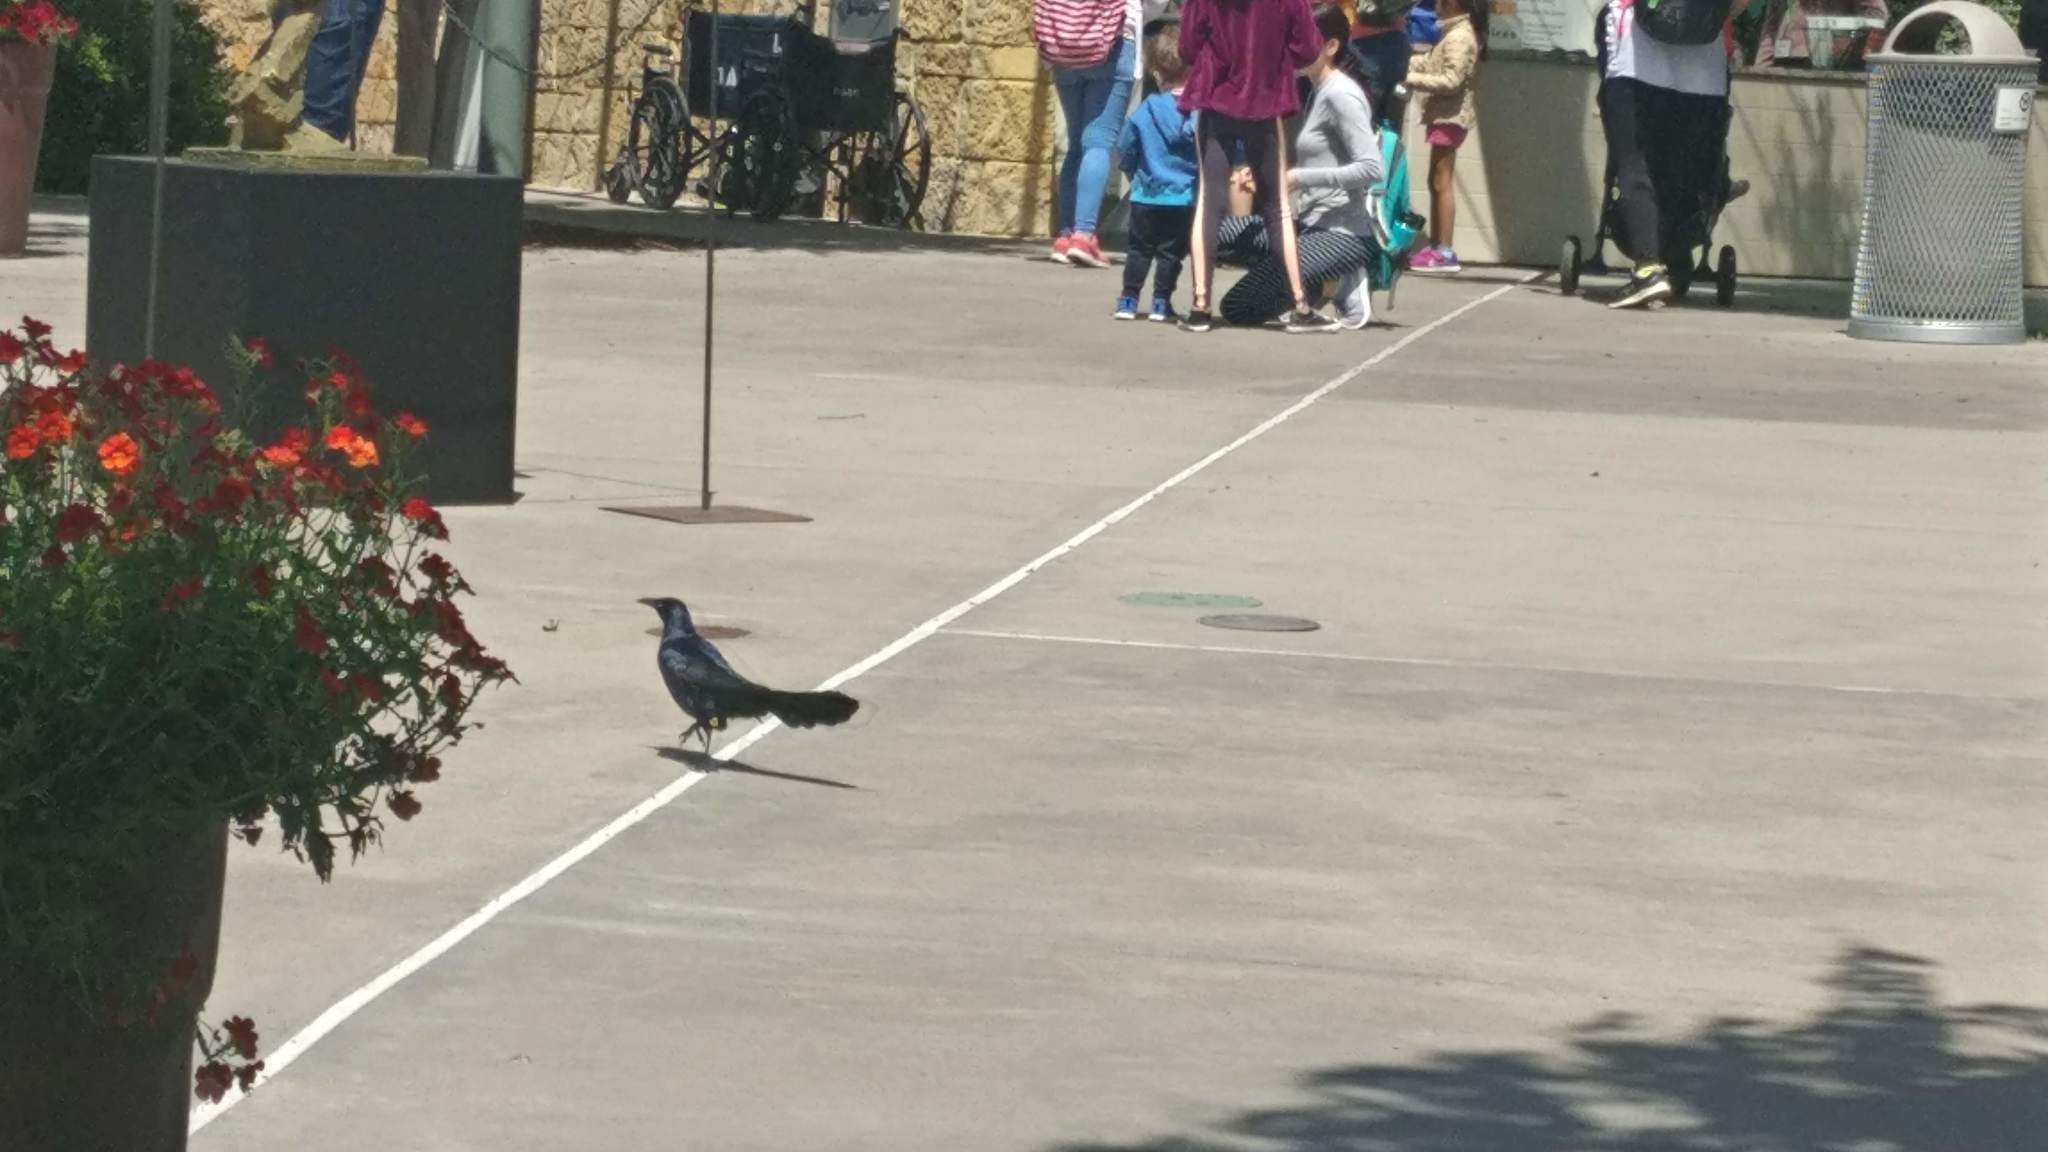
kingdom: Animalia
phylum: Chordata
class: Aves
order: Passeriformes
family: Icteridae
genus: Quiscalus
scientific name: Quiscalus mexicanus
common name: Great-tailed grackle
